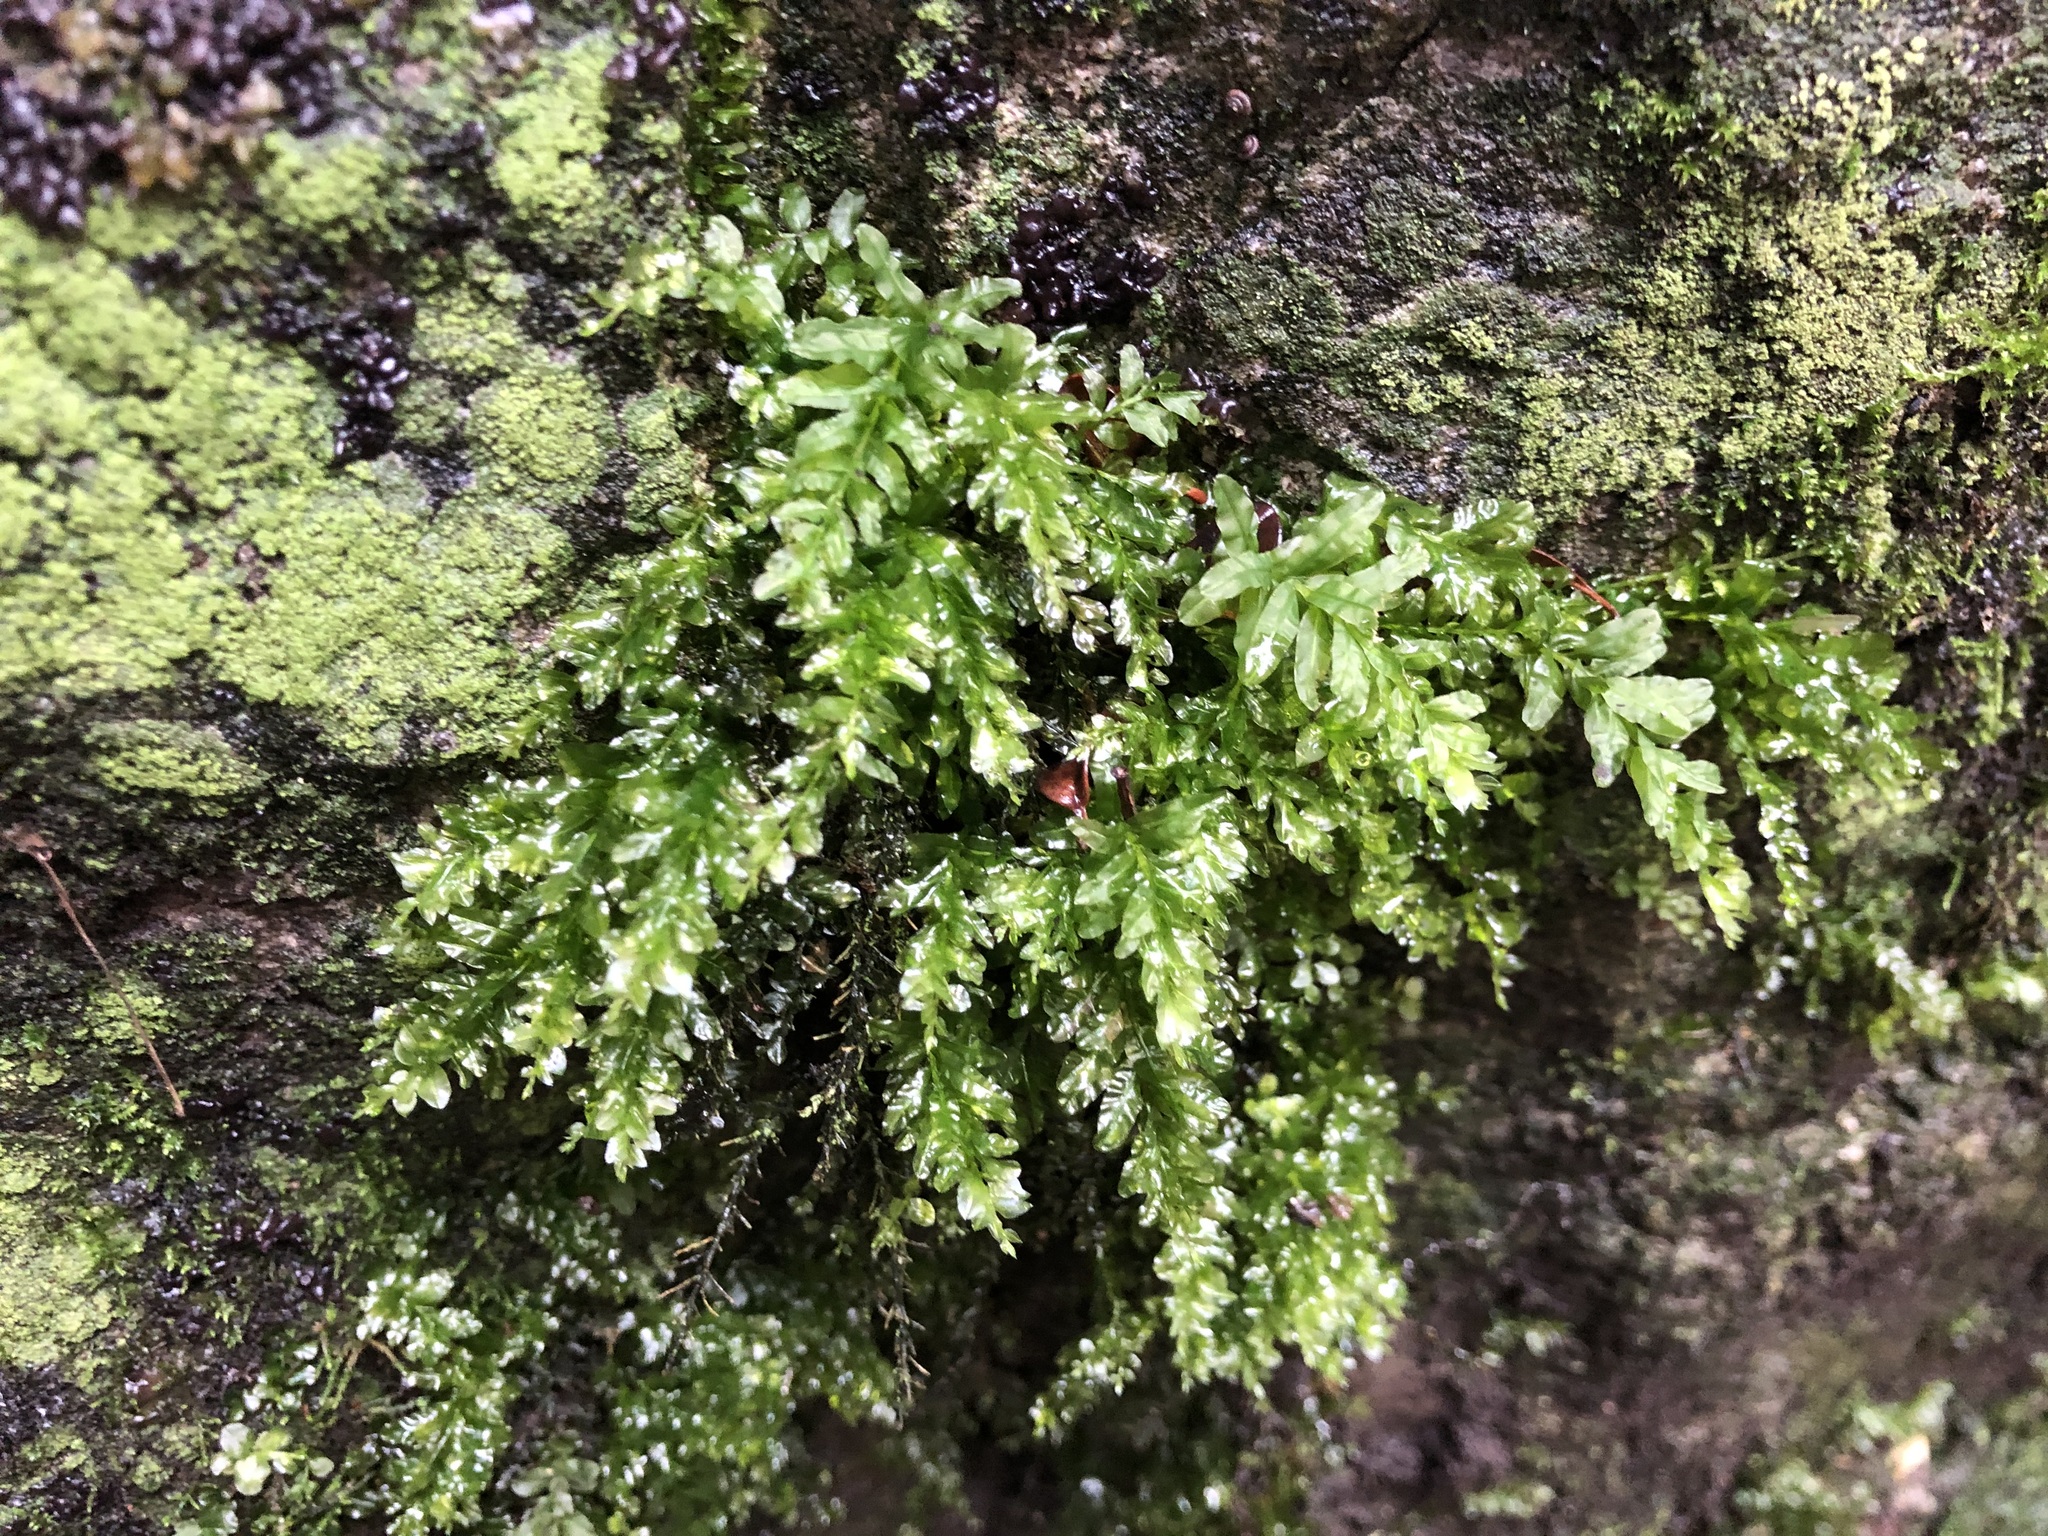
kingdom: Plantae
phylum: Bryophyta
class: Bryopsida
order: Bryales
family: Mniaceae
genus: Plagiomnium
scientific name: Plagiomnium undulatum
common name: Hart's-tongue thyme-moss
